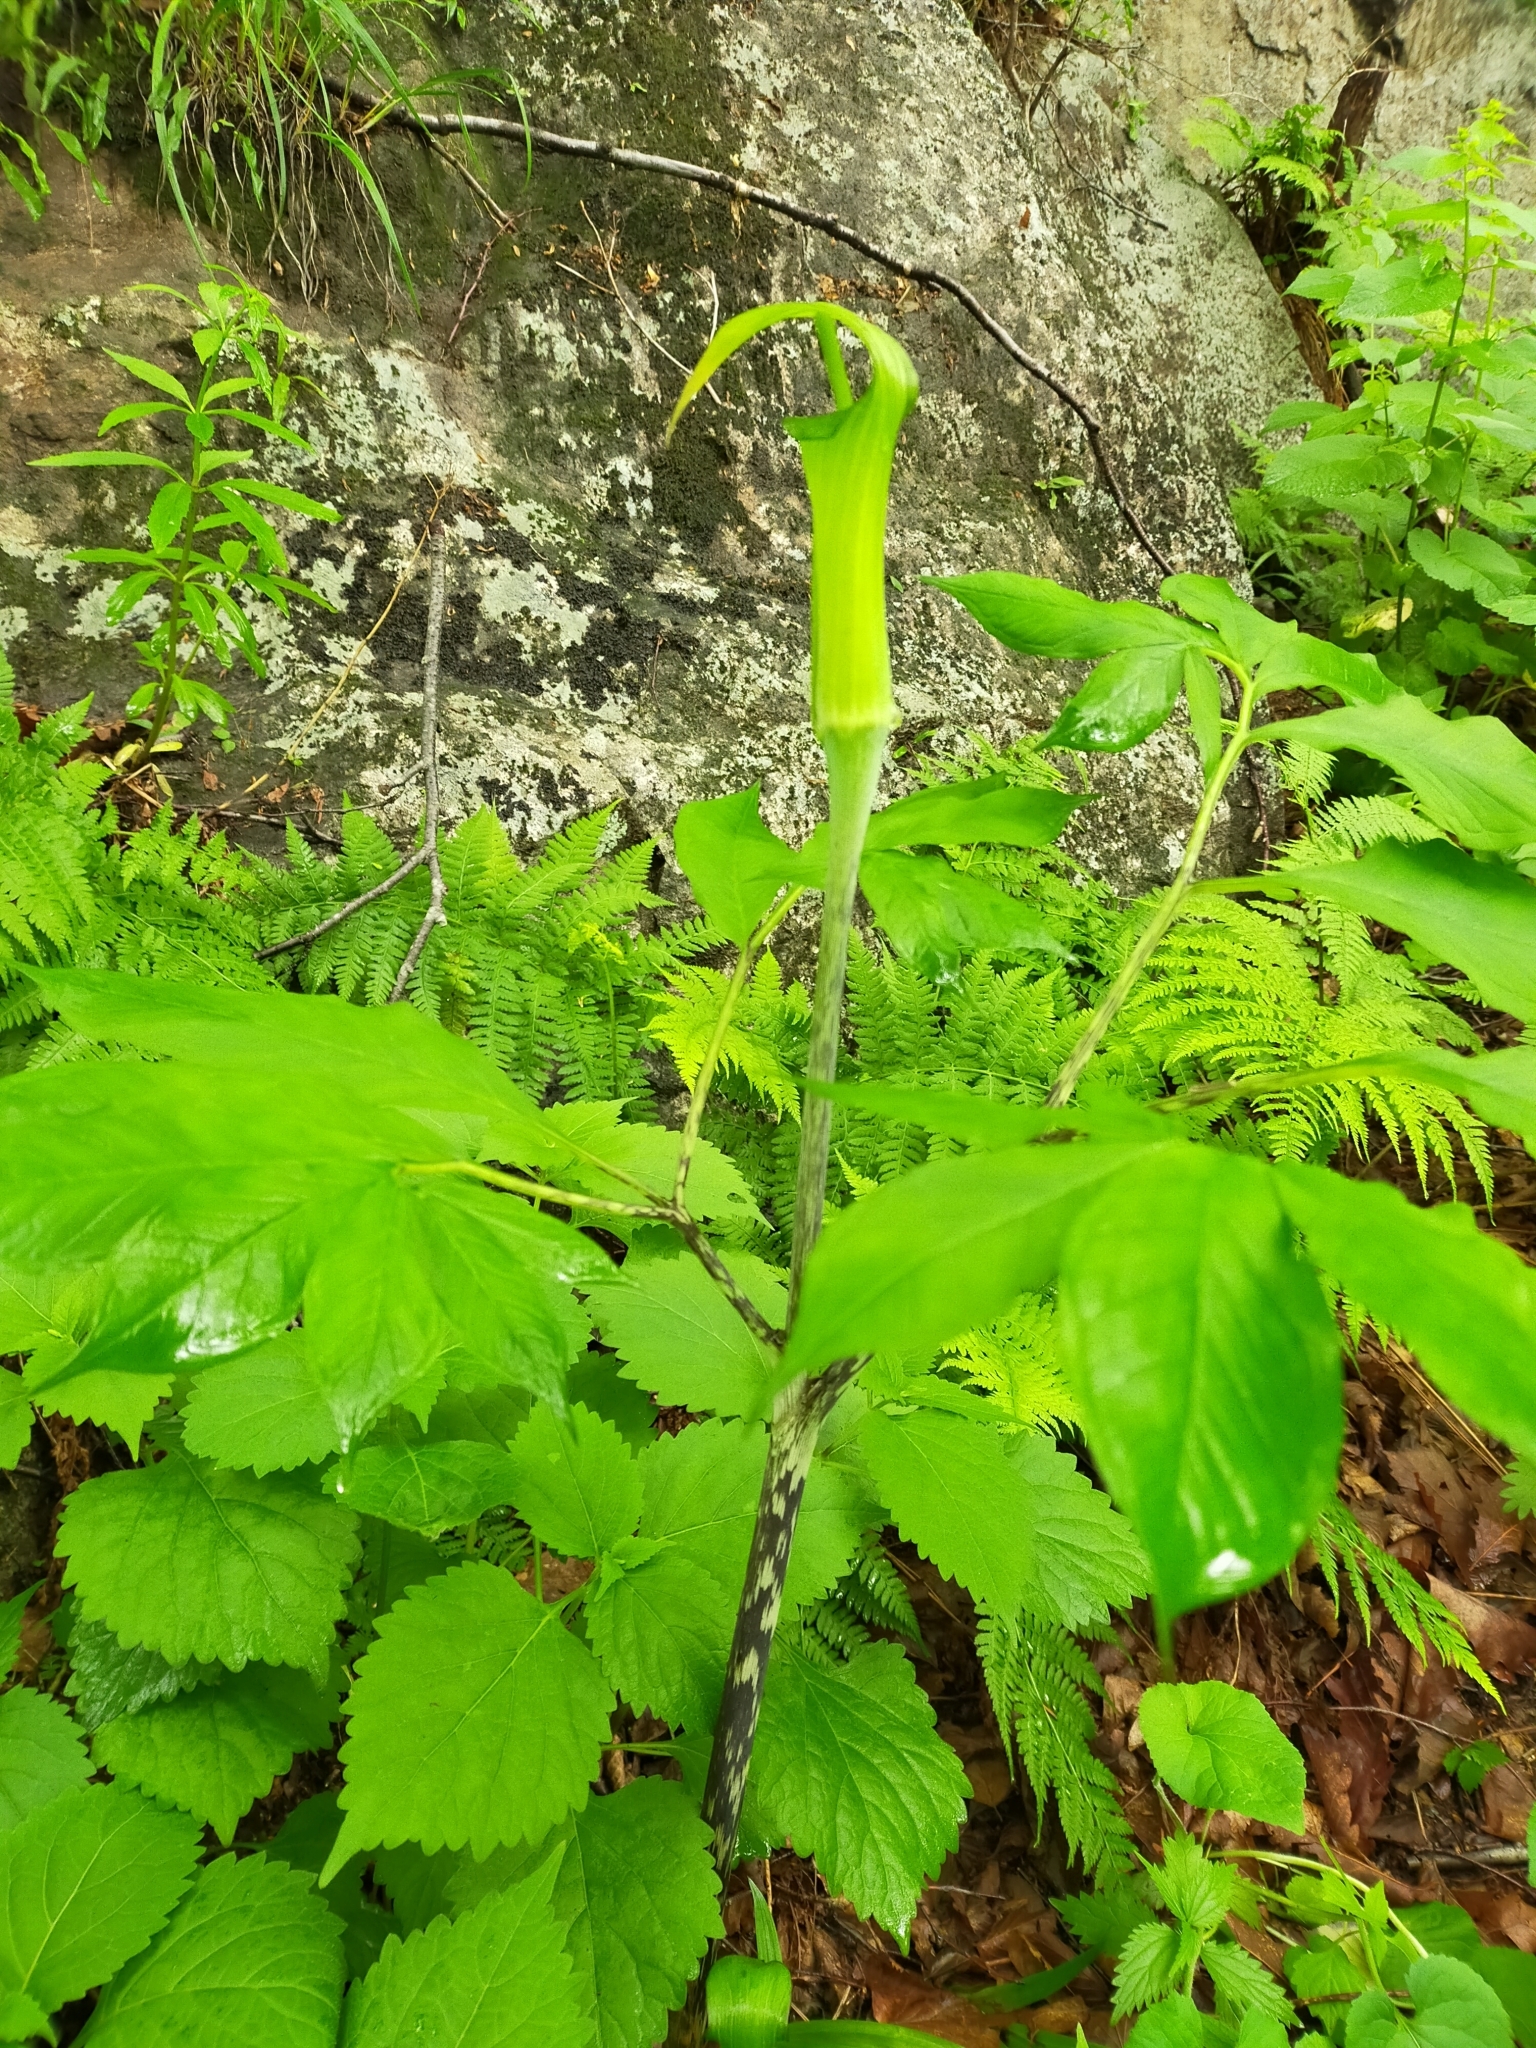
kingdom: Plantae
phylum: Tracheophyta
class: Liliopsida
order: Alismatales
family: Araceae
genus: Arisaema
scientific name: Arisaema serratum
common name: Japanese arisaema
